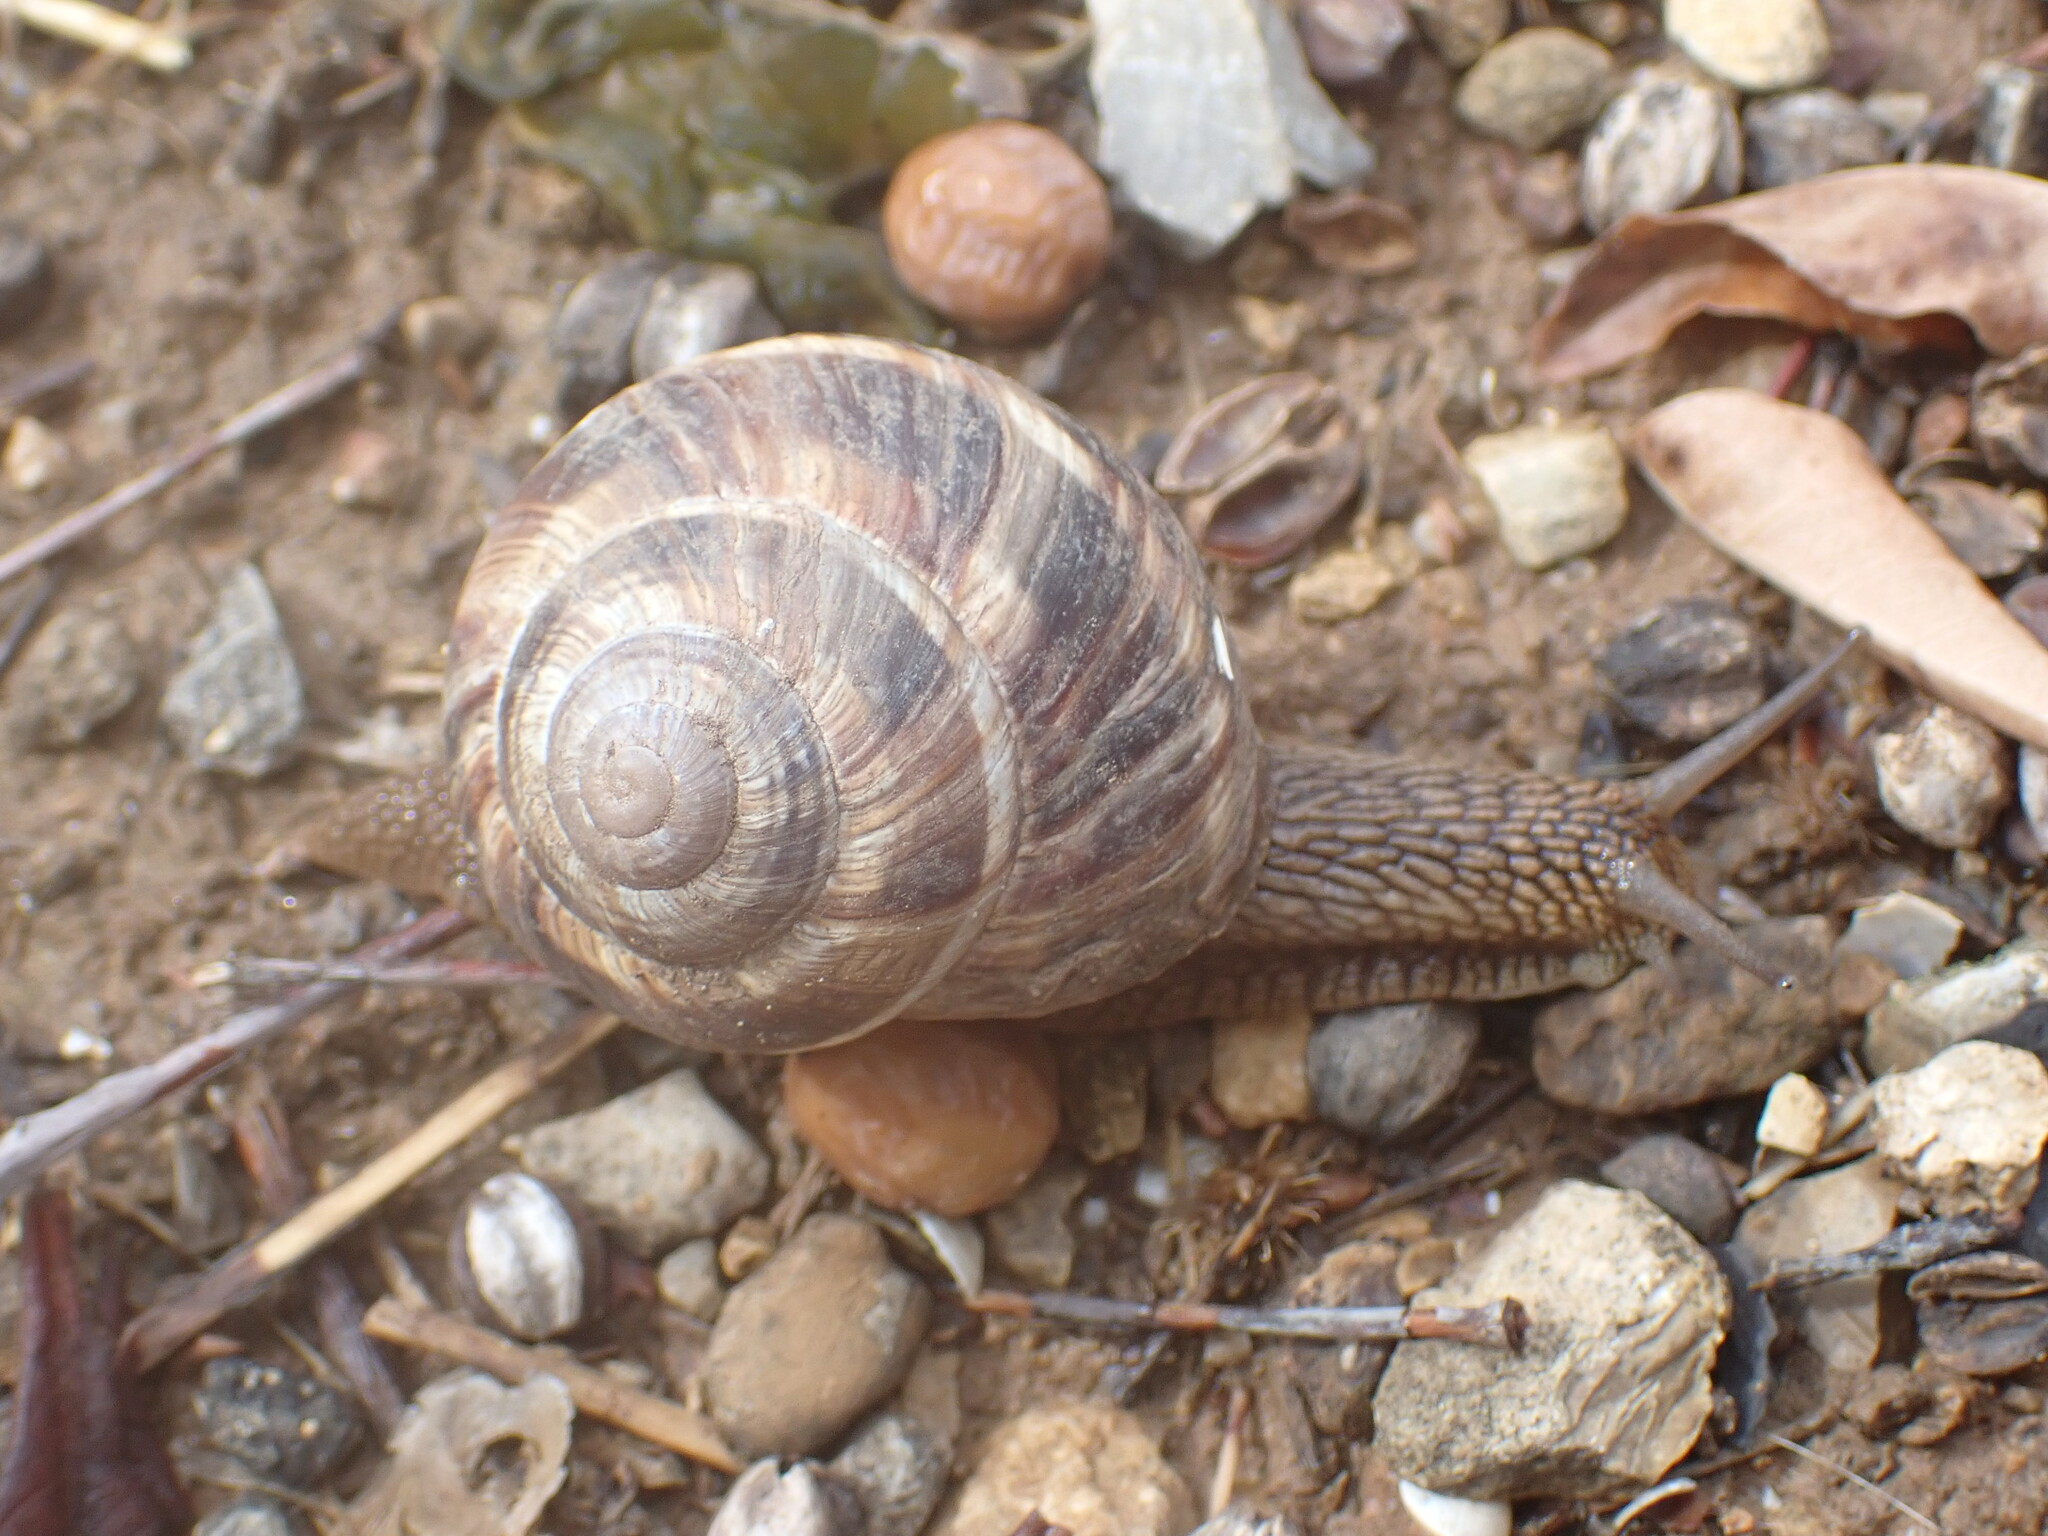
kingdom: Animalia
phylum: Mollusca
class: Gastropoda
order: Stylommatophora
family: Helicidae
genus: Helix
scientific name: Helix lucorum
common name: Turkish snail
